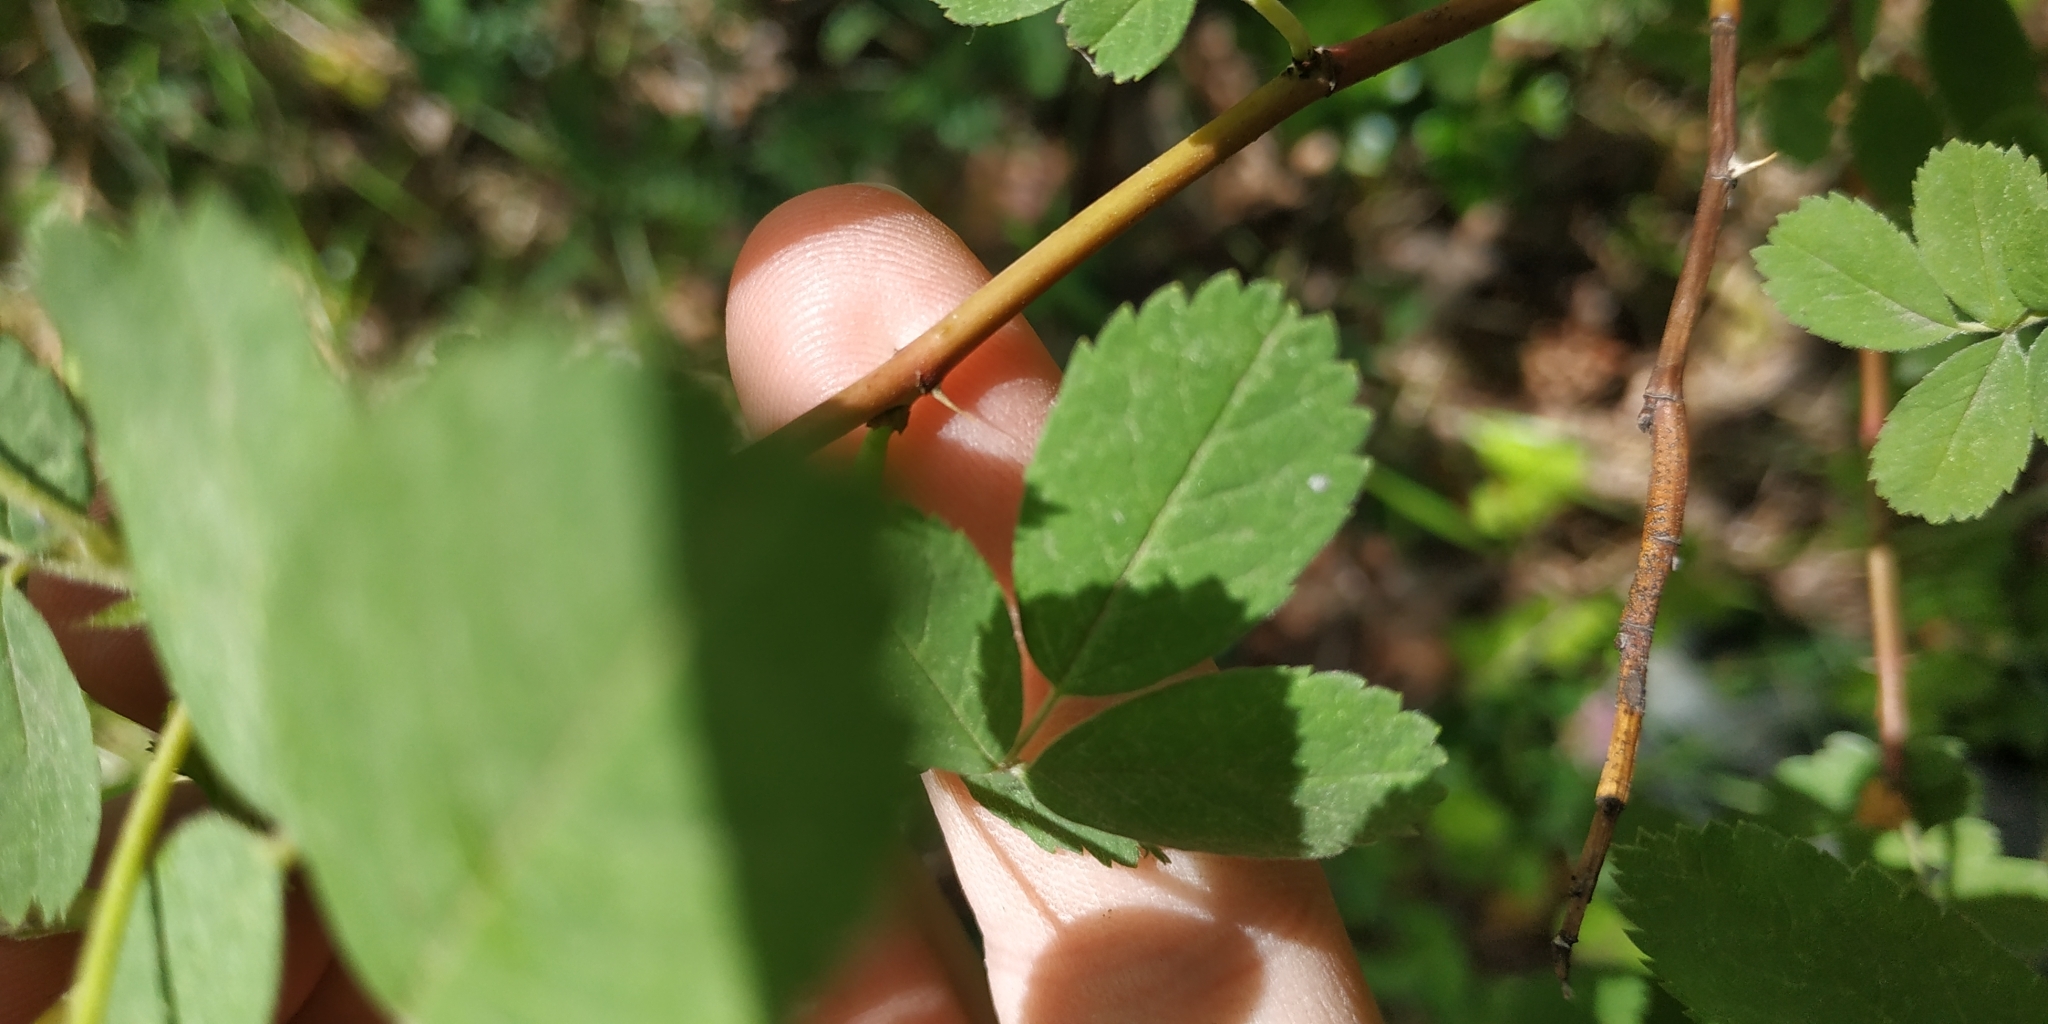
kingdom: Plantae
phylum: Tracheophyta
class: Magnoliopsida
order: Rosales
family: Rosaceae
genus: Rosa
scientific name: Rosa majalis
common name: Cinnamon rose
